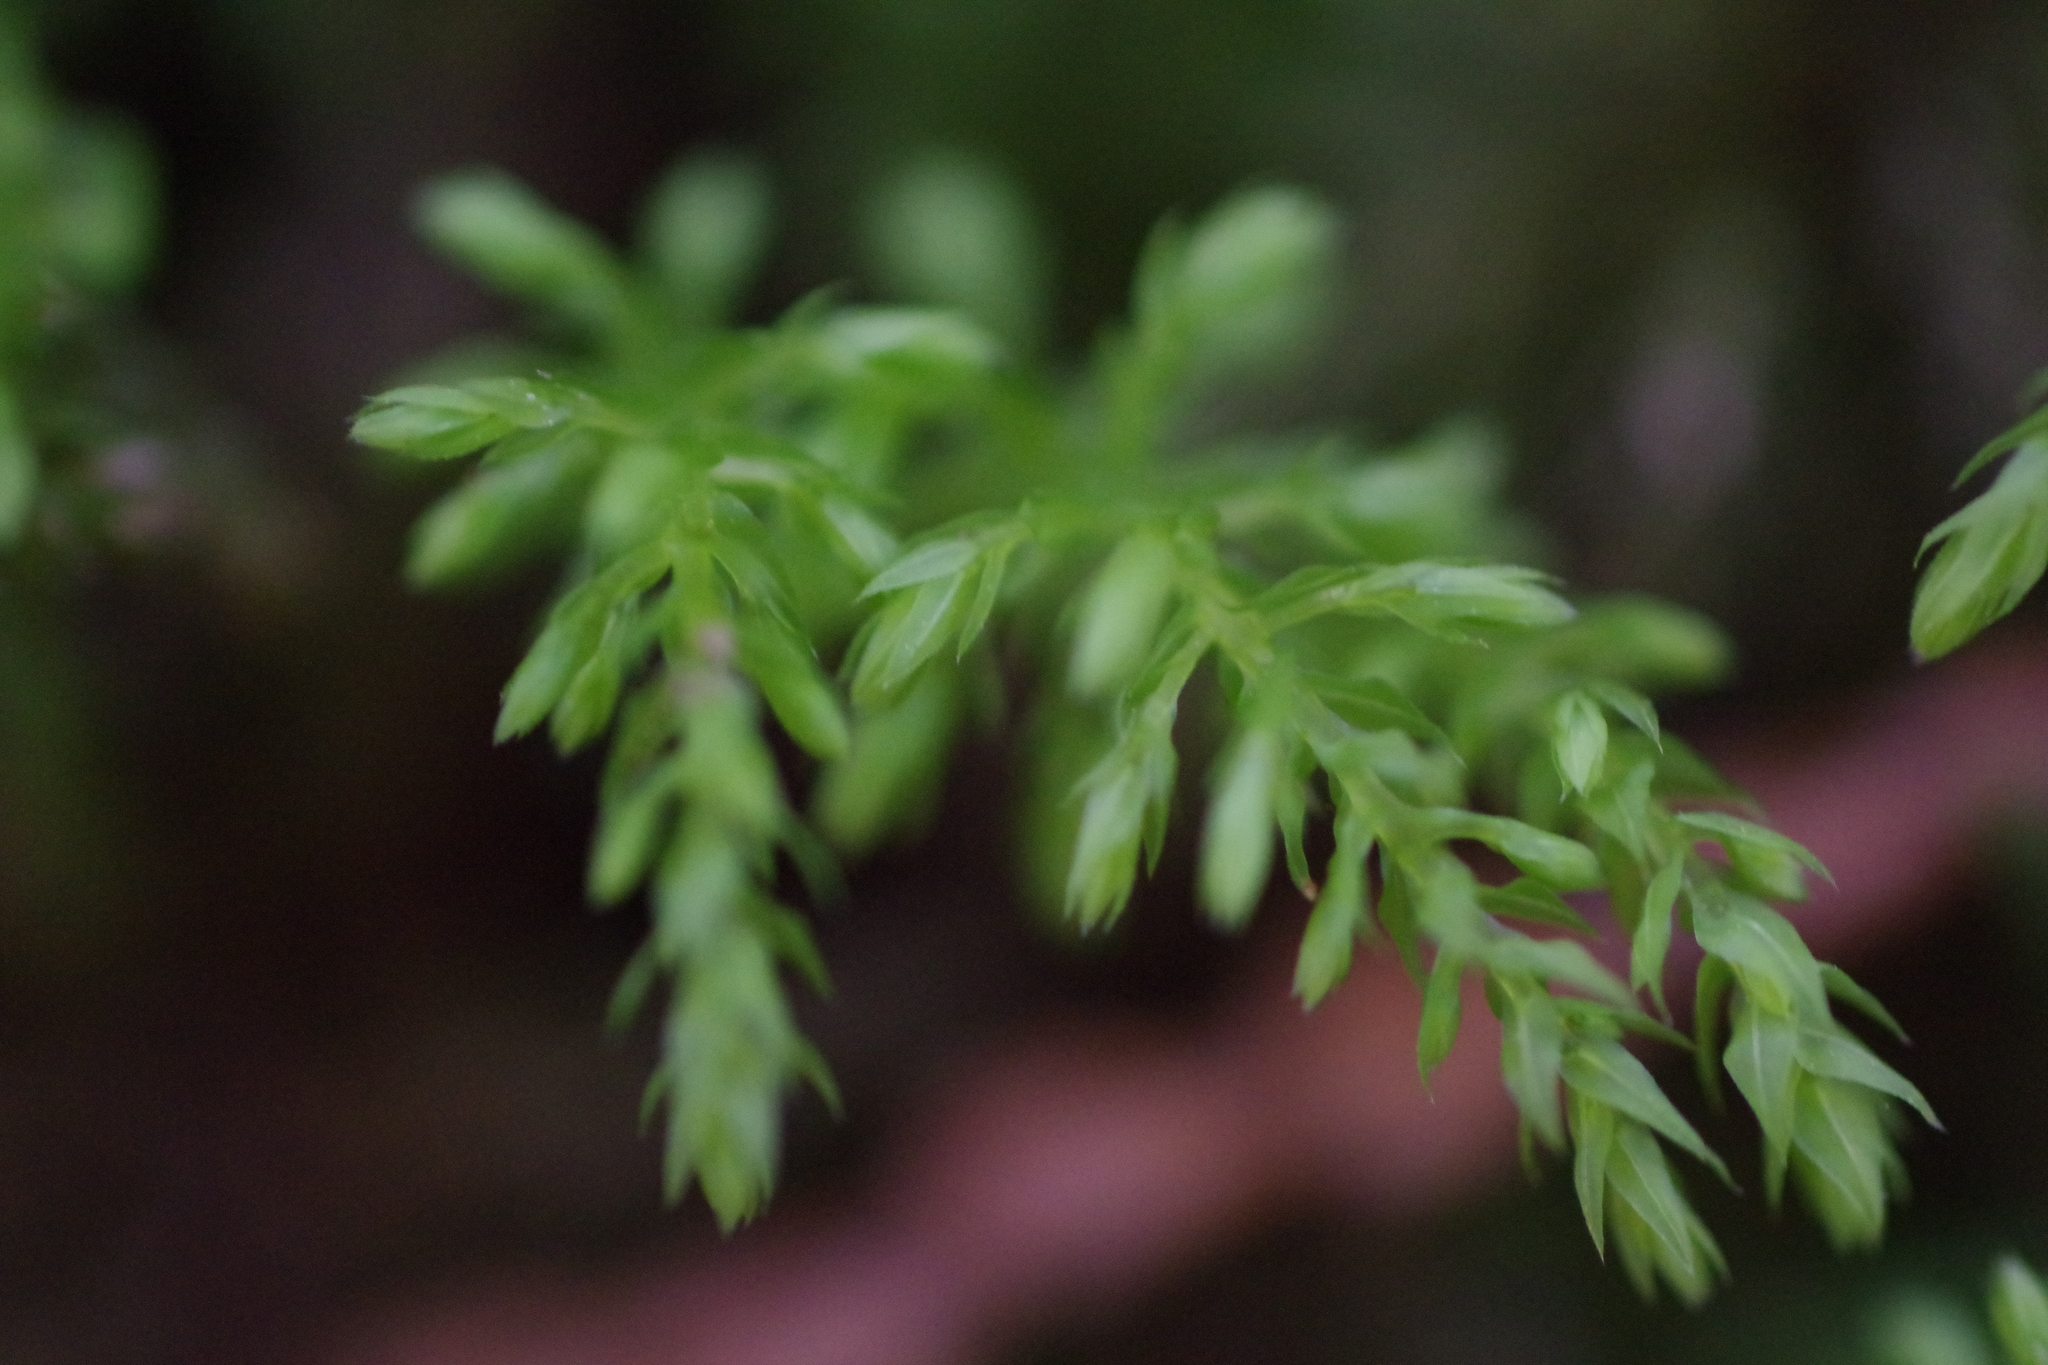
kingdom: Plantae
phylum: Bryophyta
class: Bryopsida
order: Bryales
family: Mniaceae
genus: Leucolepis
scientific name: Leucolepis acanthoneura
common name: Leucolepis umbrella moss
